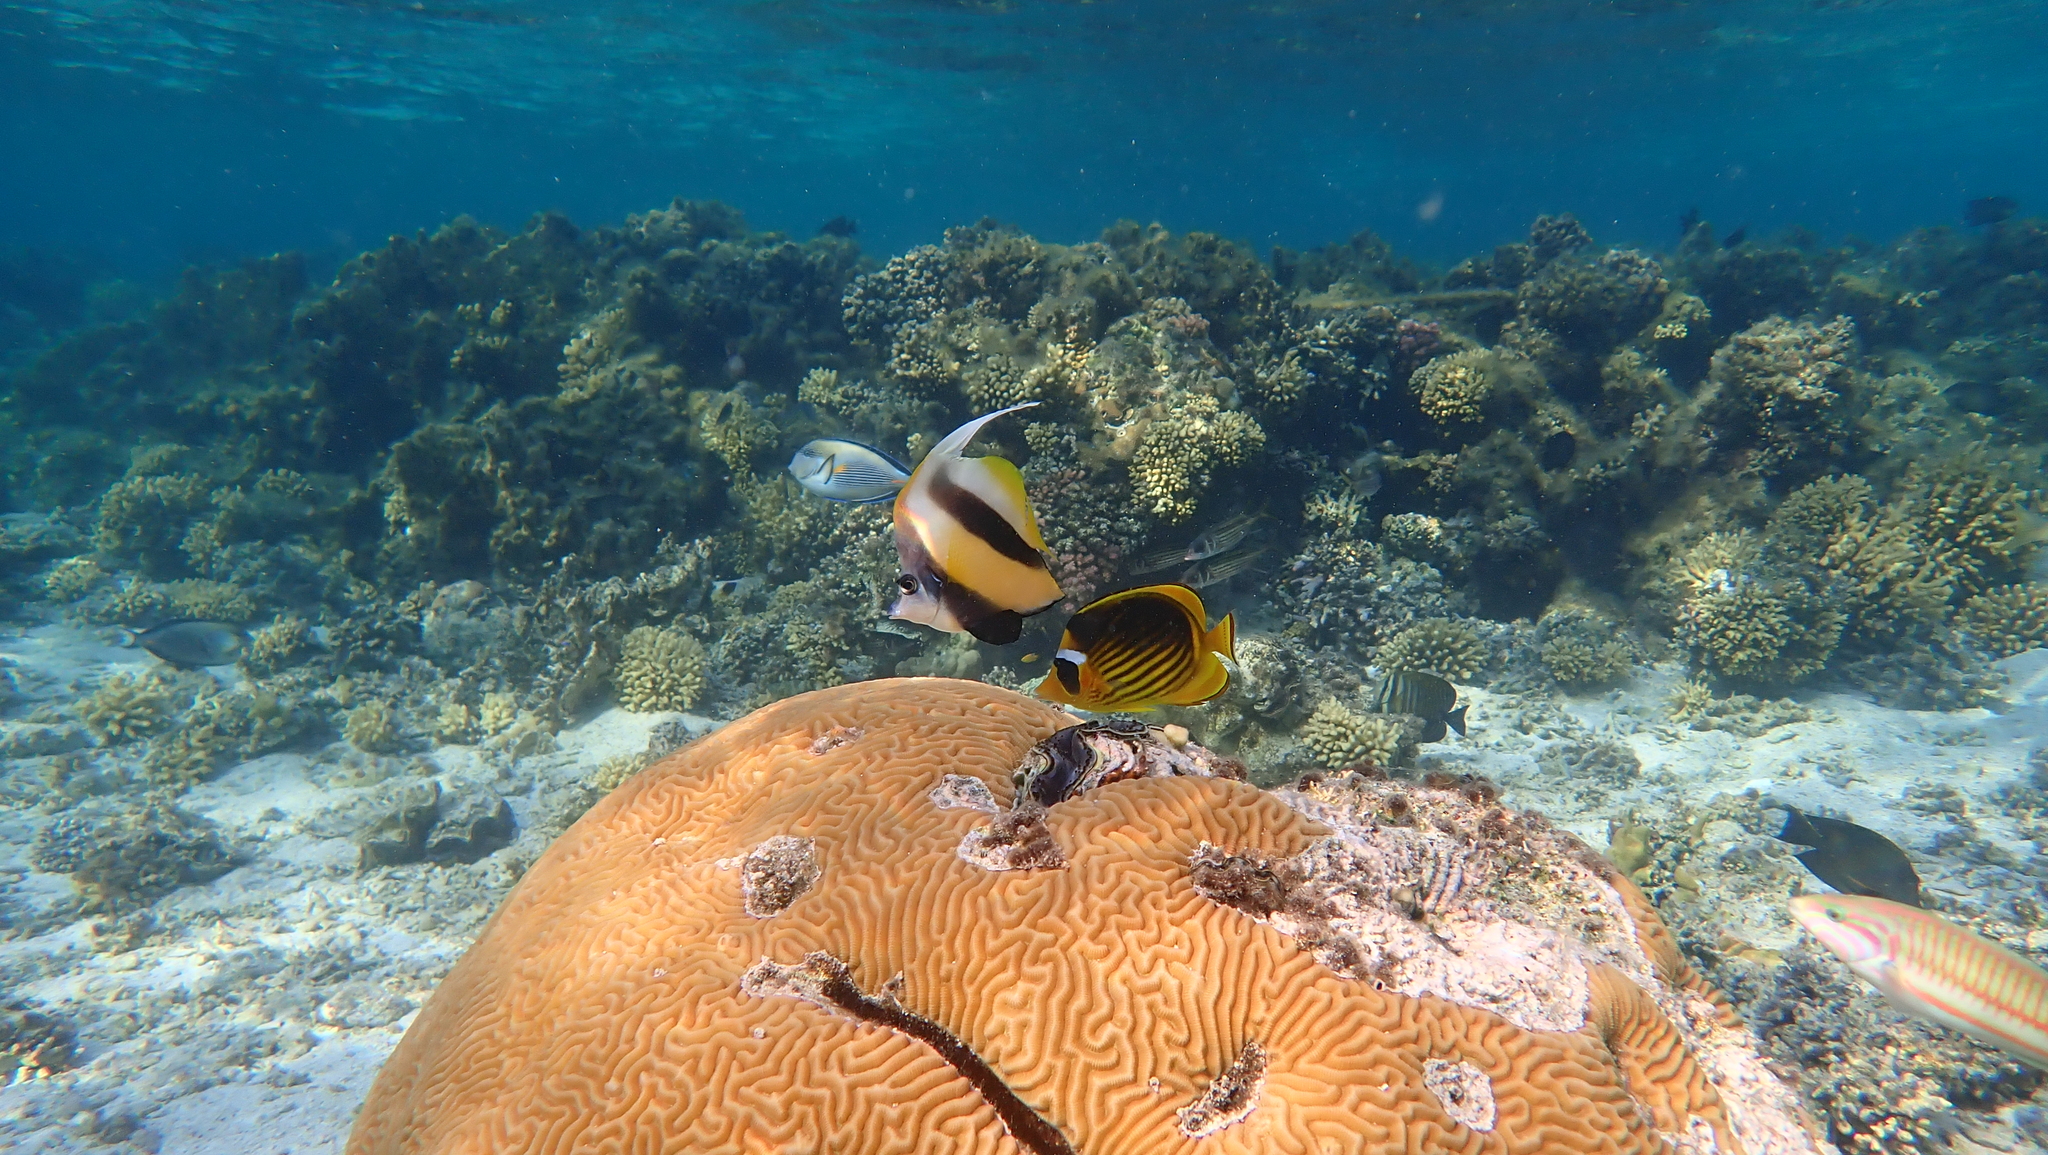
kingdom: Animalia
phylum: Chordata
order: Perciformes
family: Chaetodontidae
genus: Heniochus
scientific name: Heniochus intermedius
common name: Red sea bannerfish
